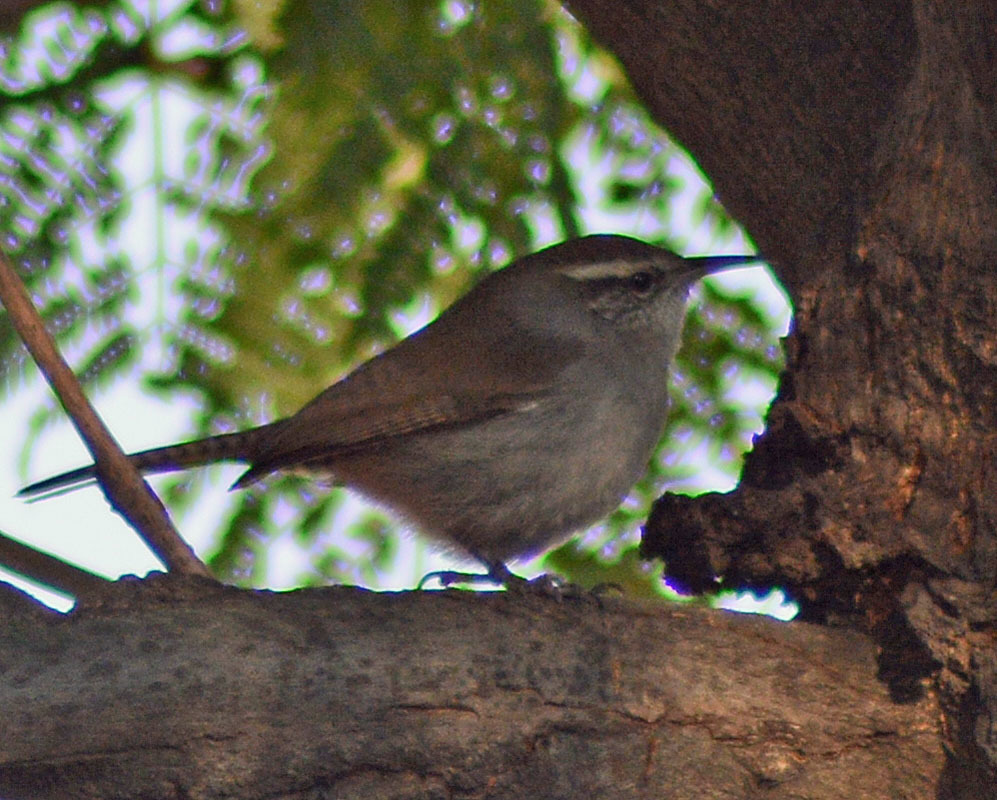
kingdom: Animalia
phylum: Chordata
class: Aves
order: Passeriformes
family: Troglodytidae
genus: Thryomanes
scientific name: Thryomanes bewickii
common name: Bewick's wren
